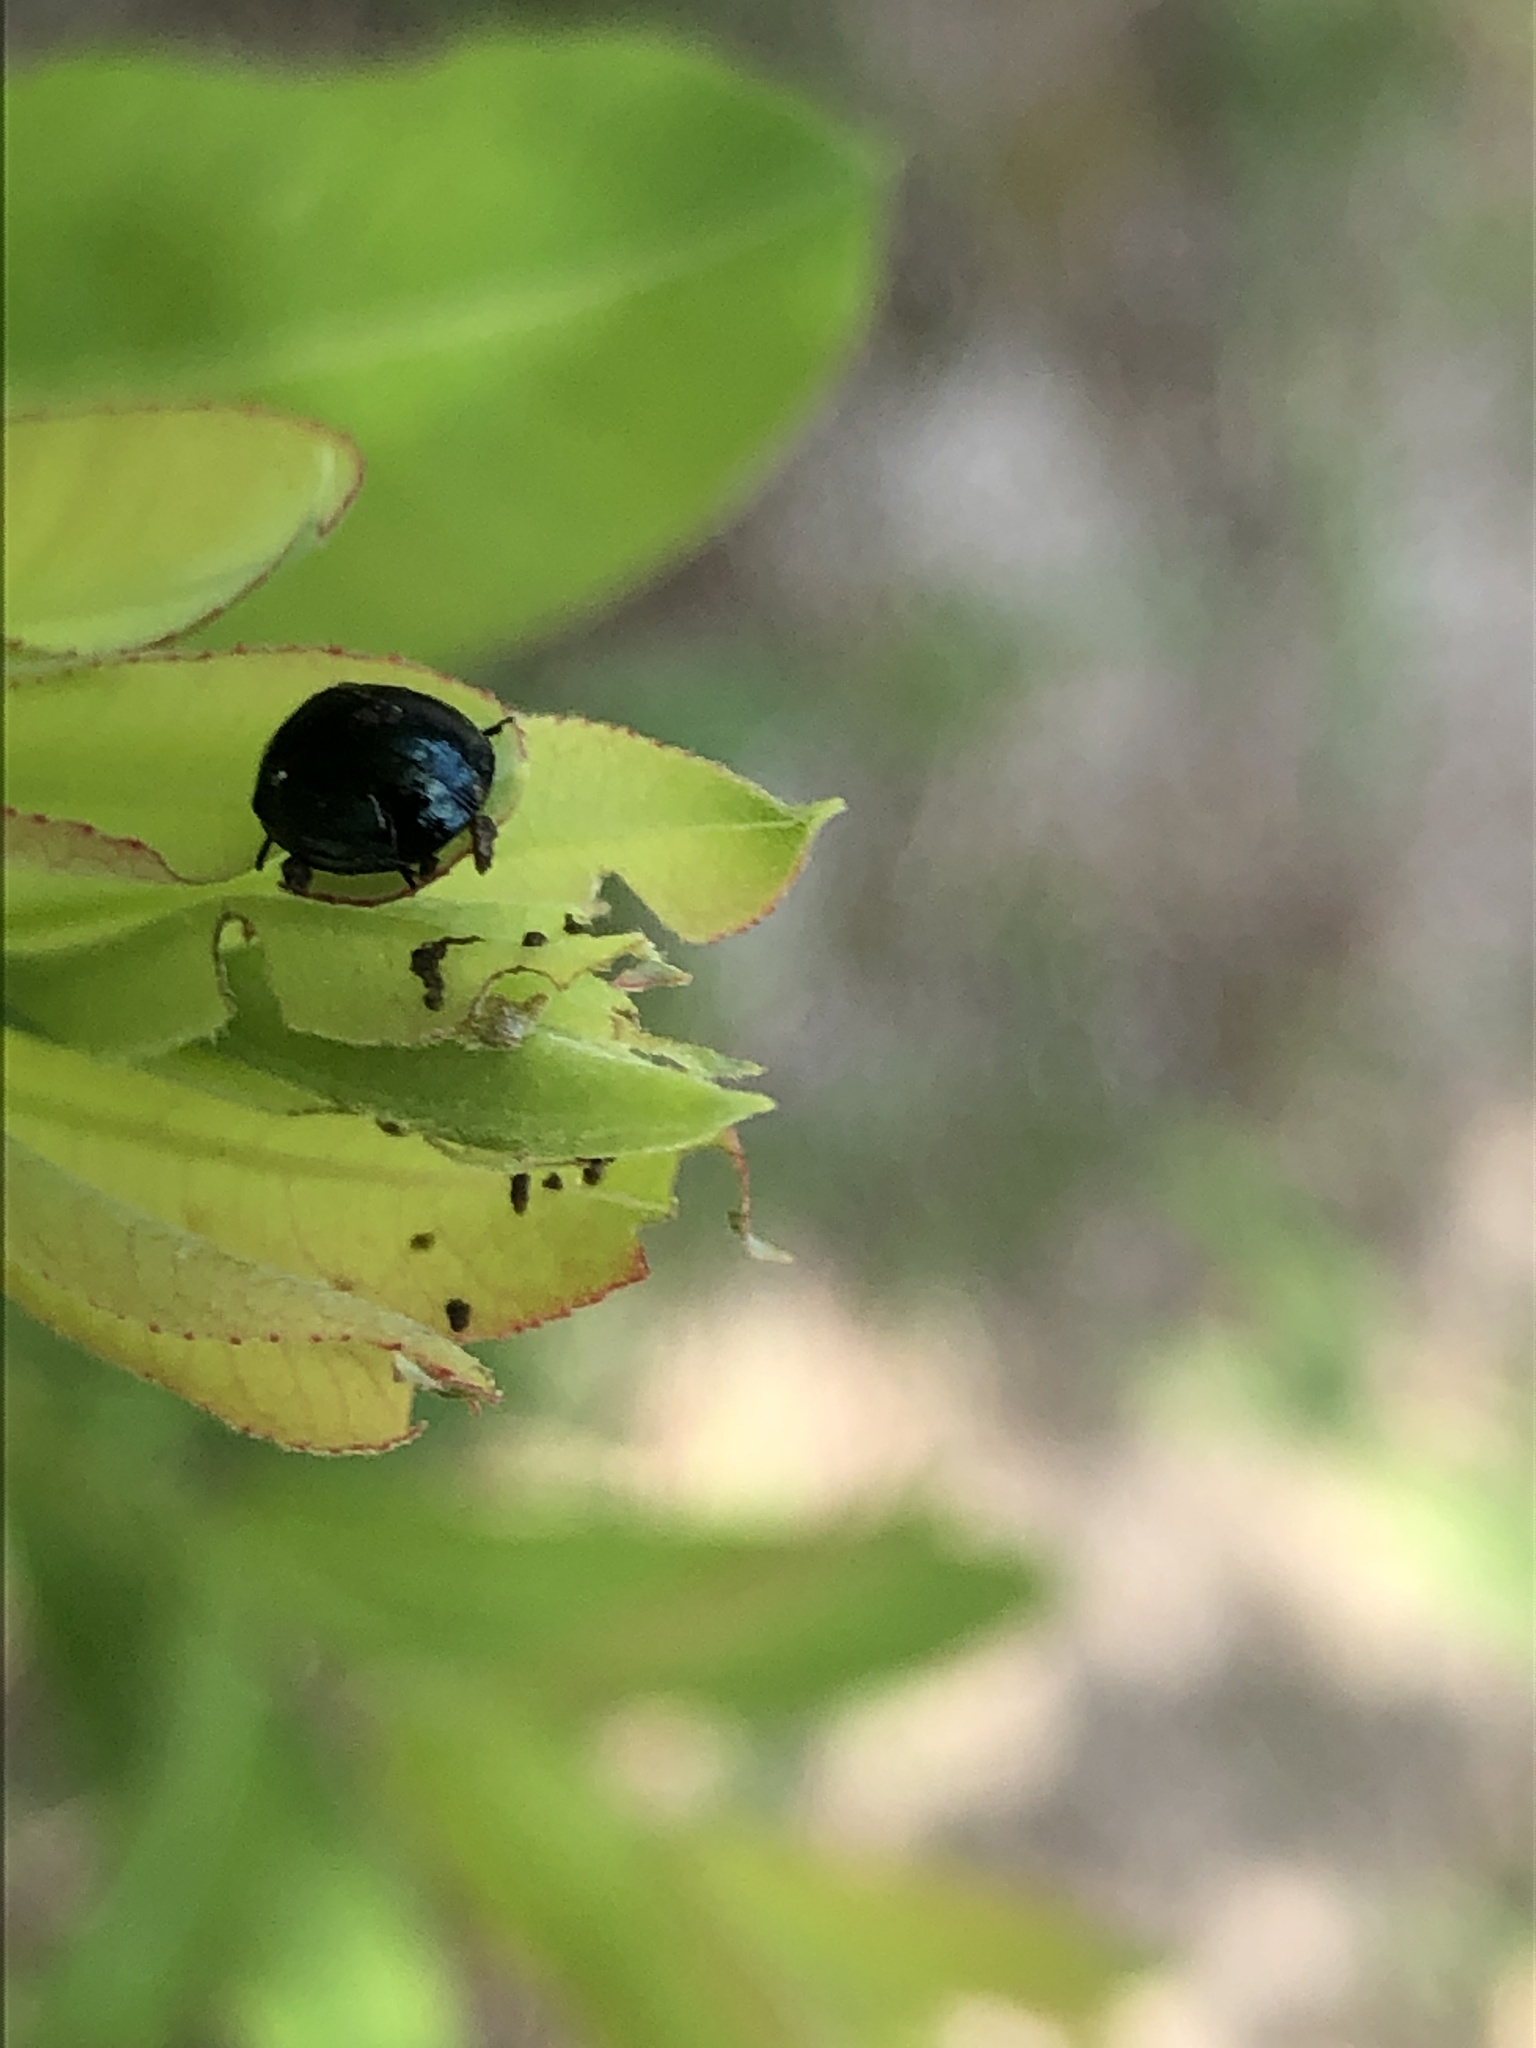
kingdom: Animalia
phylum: Arthropoda
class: Insecta
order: Coleoptera
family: Chrysomelidae
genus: Plagiodera
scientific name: Plagiodera versicolora
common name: Imported willow leaf beetle
